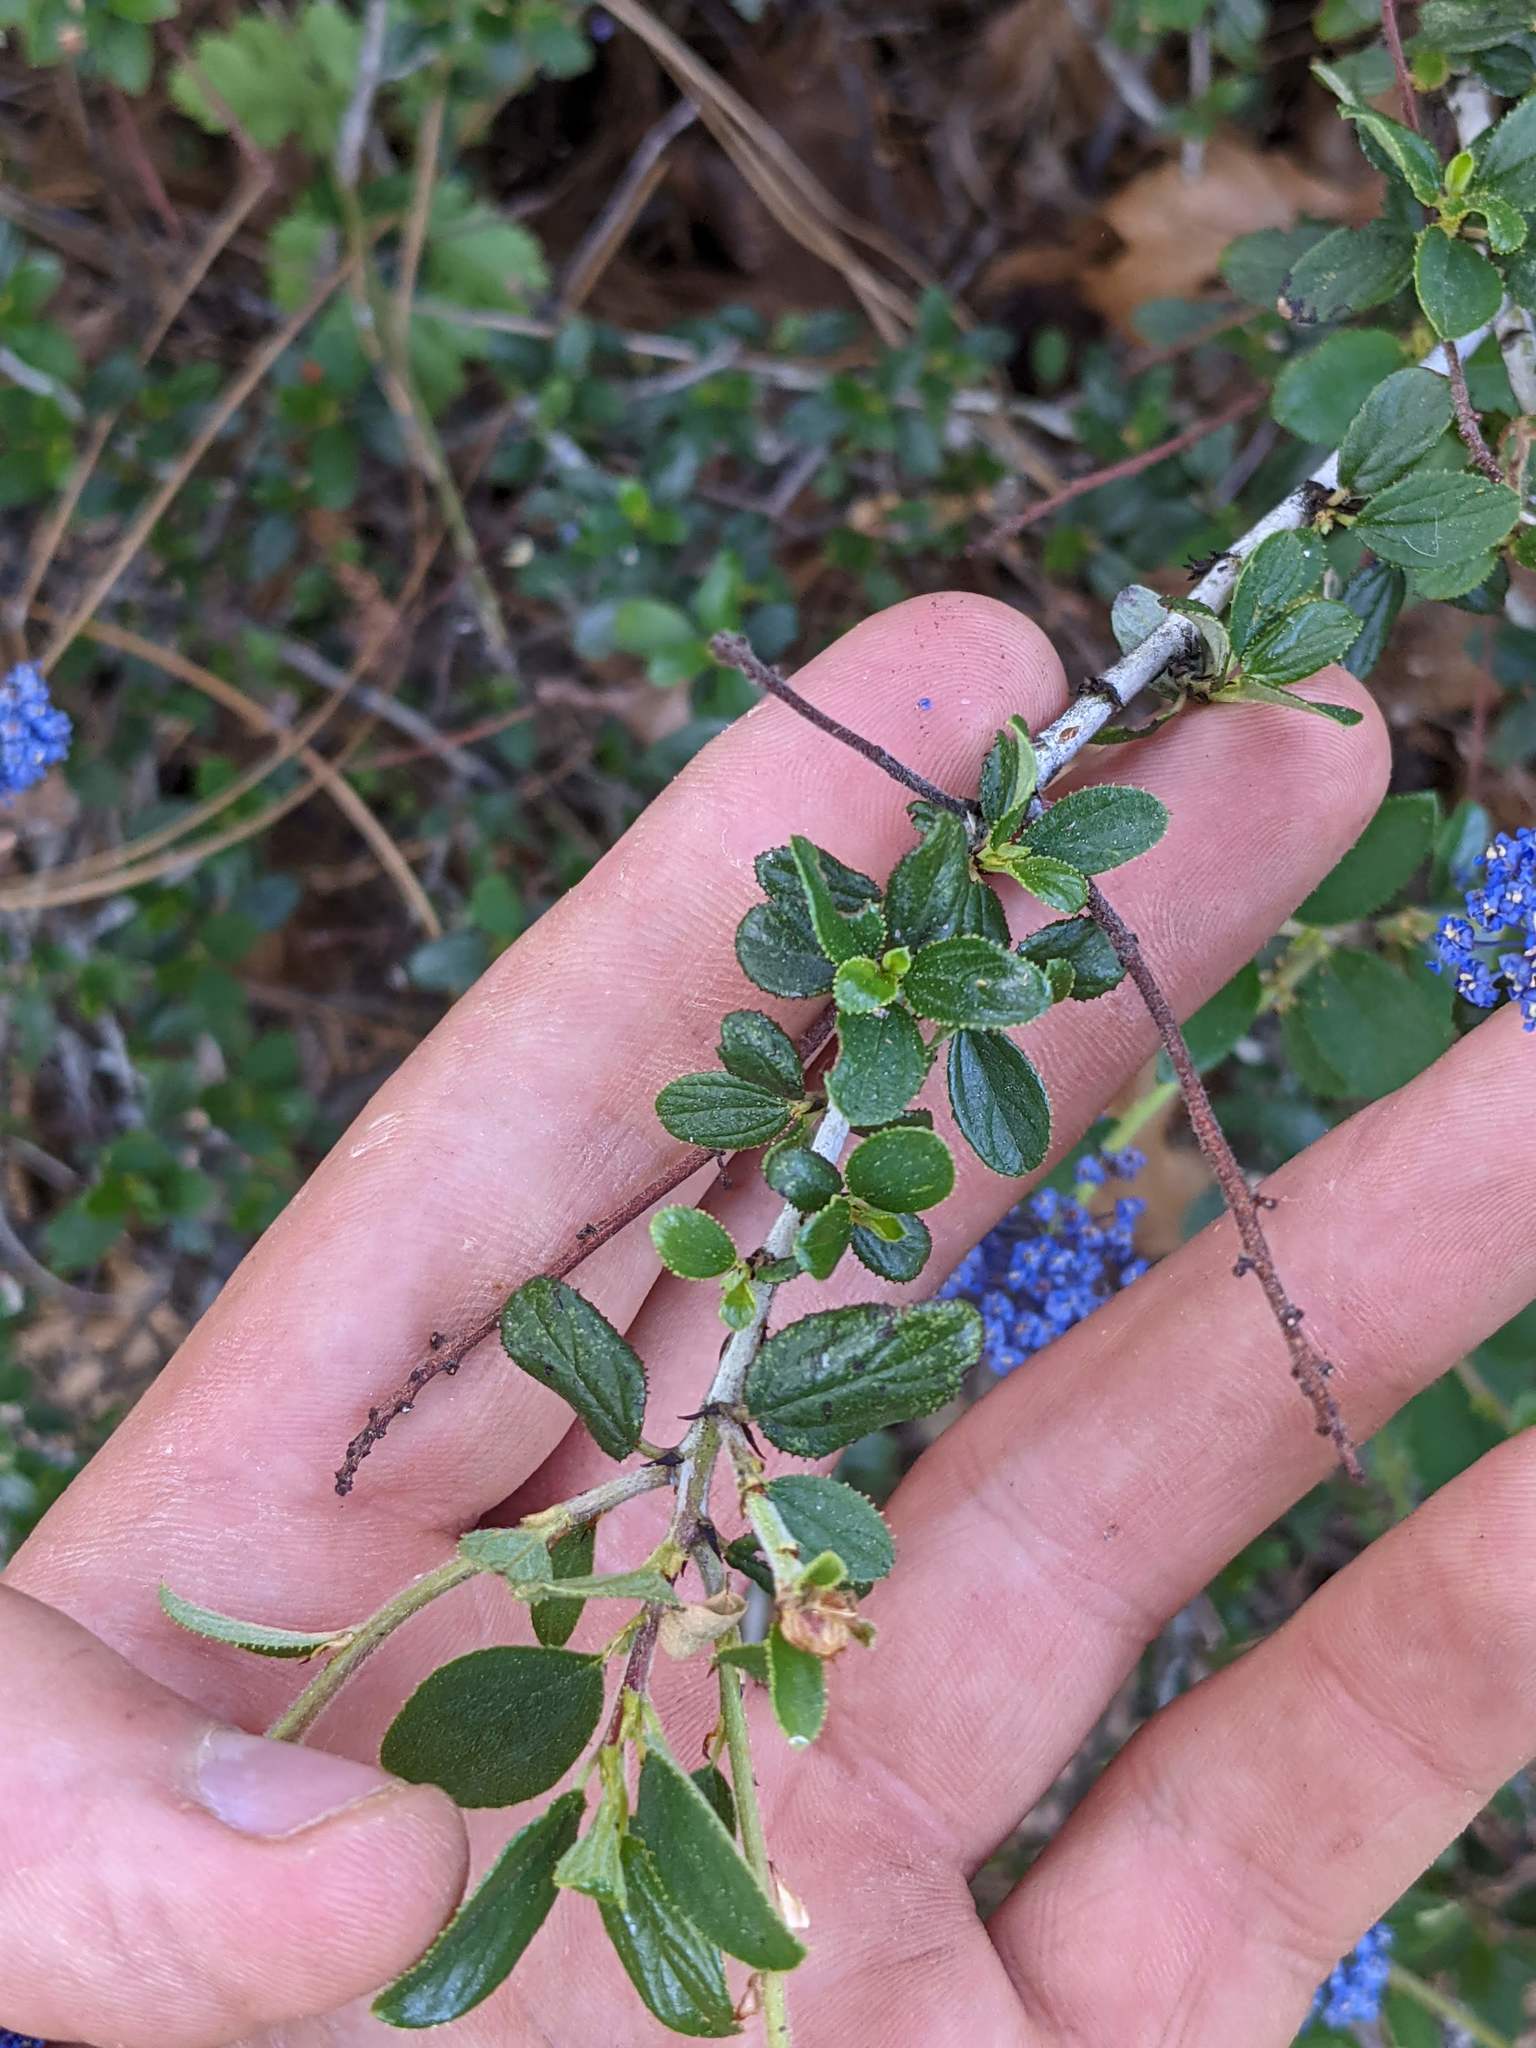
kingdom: Plantae
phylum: Tracheophyta
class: Magnoliopsida
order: Rosales
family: Rhamnaceae
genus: Ceanothus
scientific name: Ceanothus lemmonii
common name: Lemmon's ceanothus
